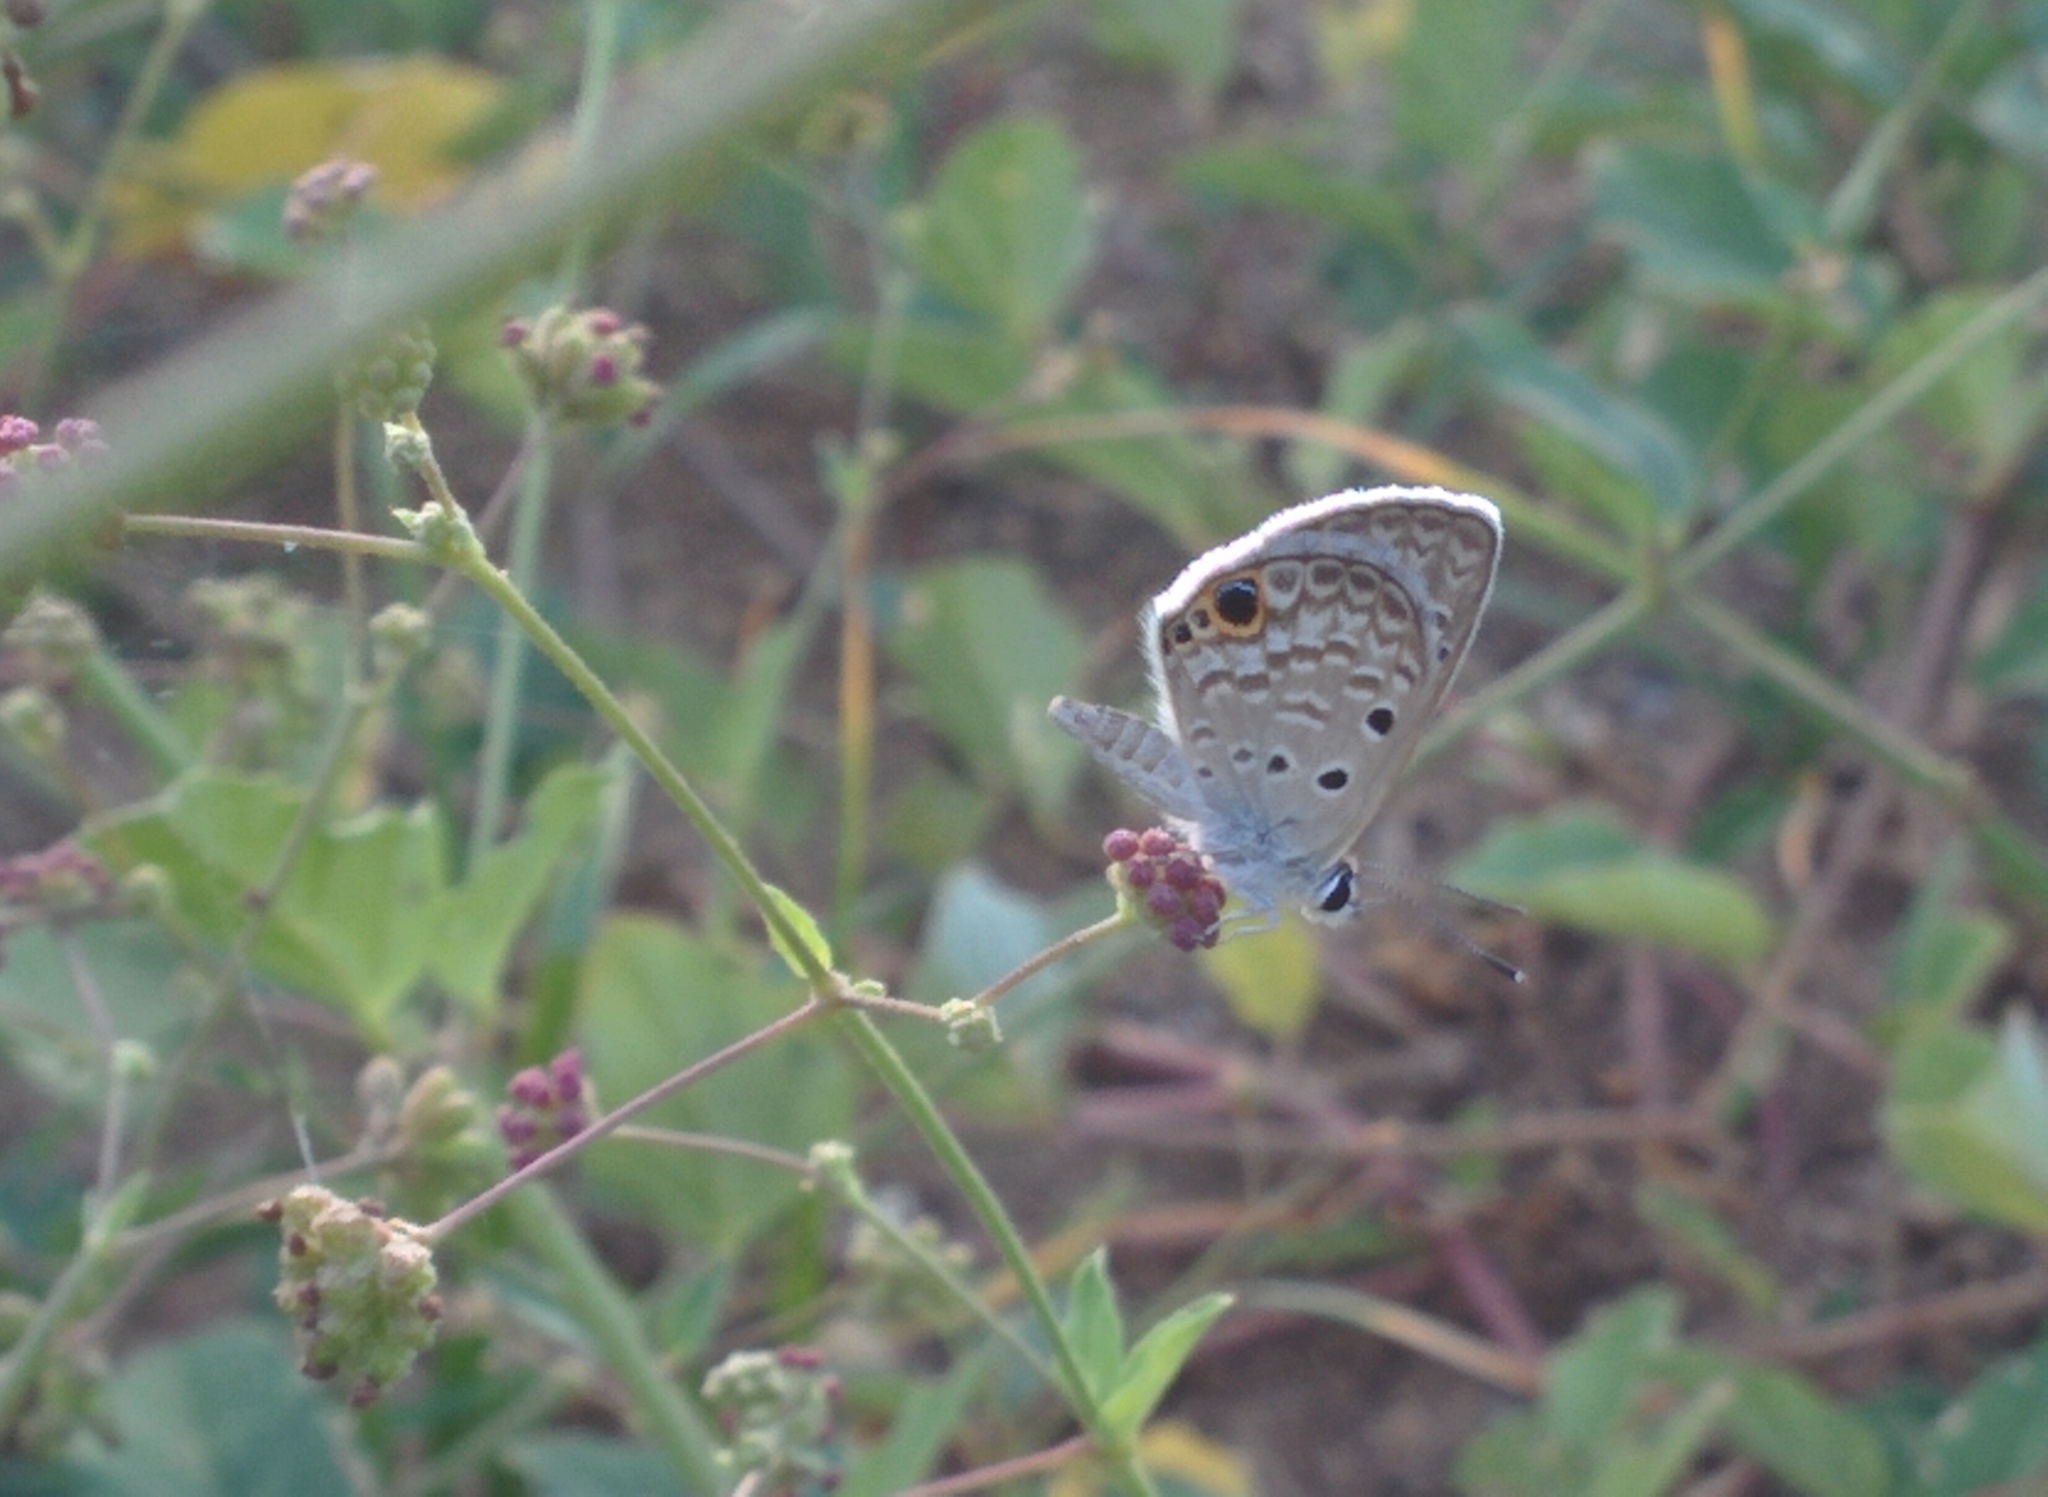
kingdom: Animalia
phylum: Arthropoda
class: Insecta
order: Lepidoptera
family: Lycaenidae
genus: Hemiargus
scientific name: Hemiargus ceraunus
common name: Ceraunus blue
